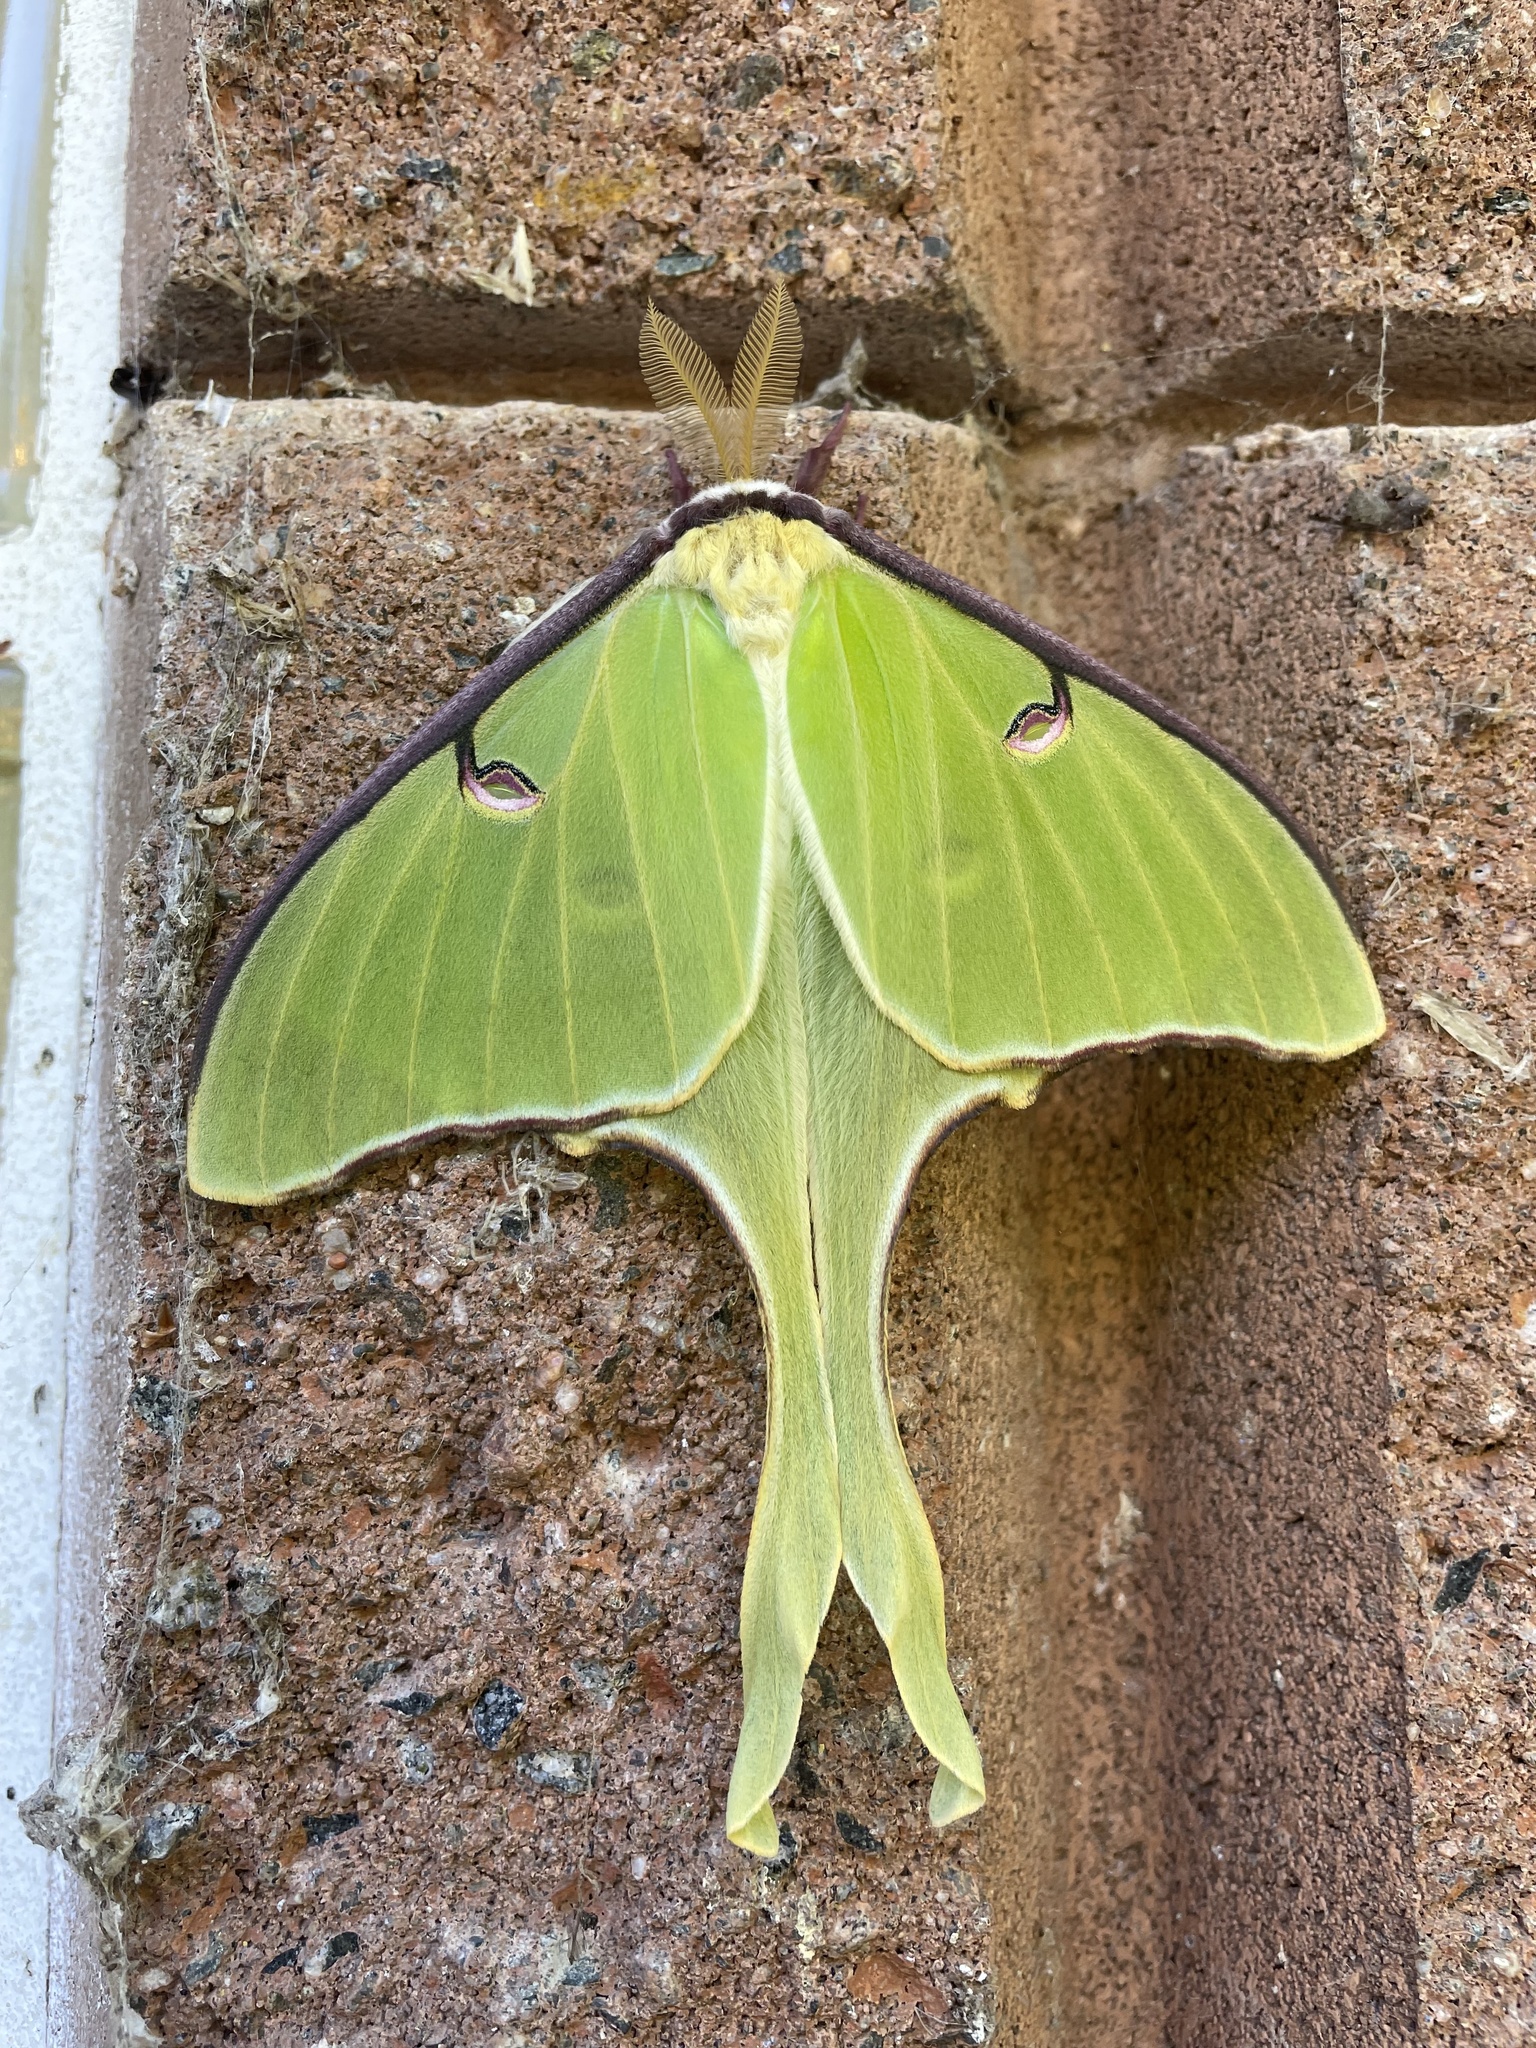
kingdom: Animalia
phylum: Arthropoda
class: Insecta
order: Lepidoptera
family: Saturniidae
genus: Actias
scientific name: Actias luna
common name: Luna moth
